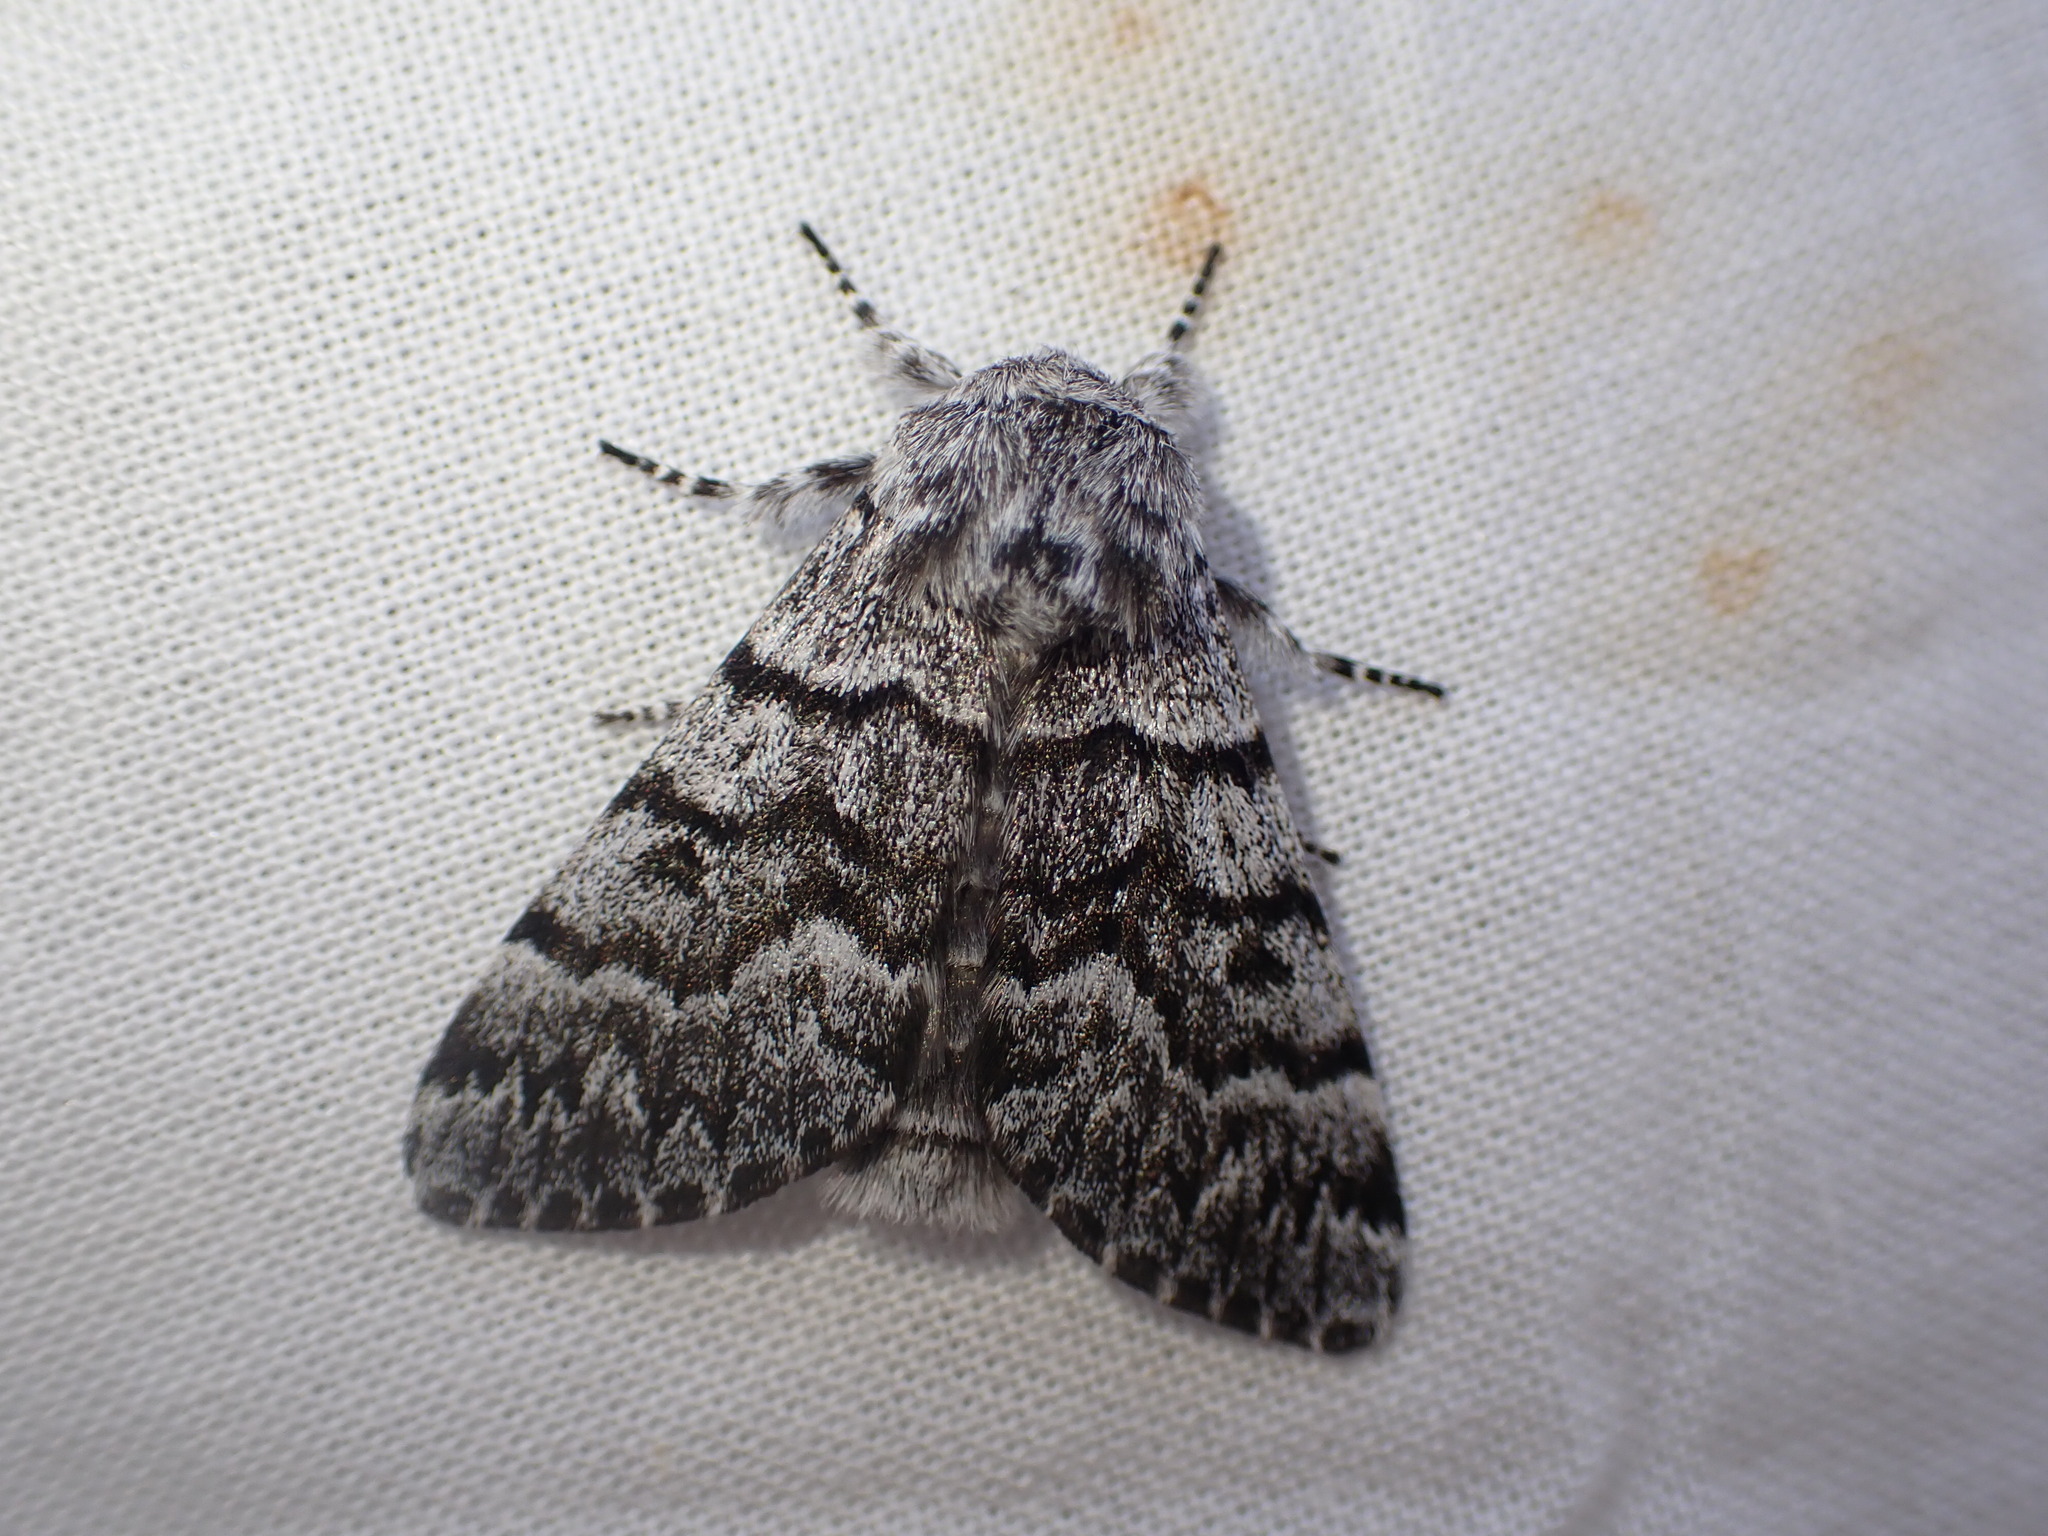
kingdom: Animalia
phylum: Arthropoda
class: Insecta
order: Lepidoptera
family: Noctuidae
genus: Panthea
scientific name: Panthea virginarius
